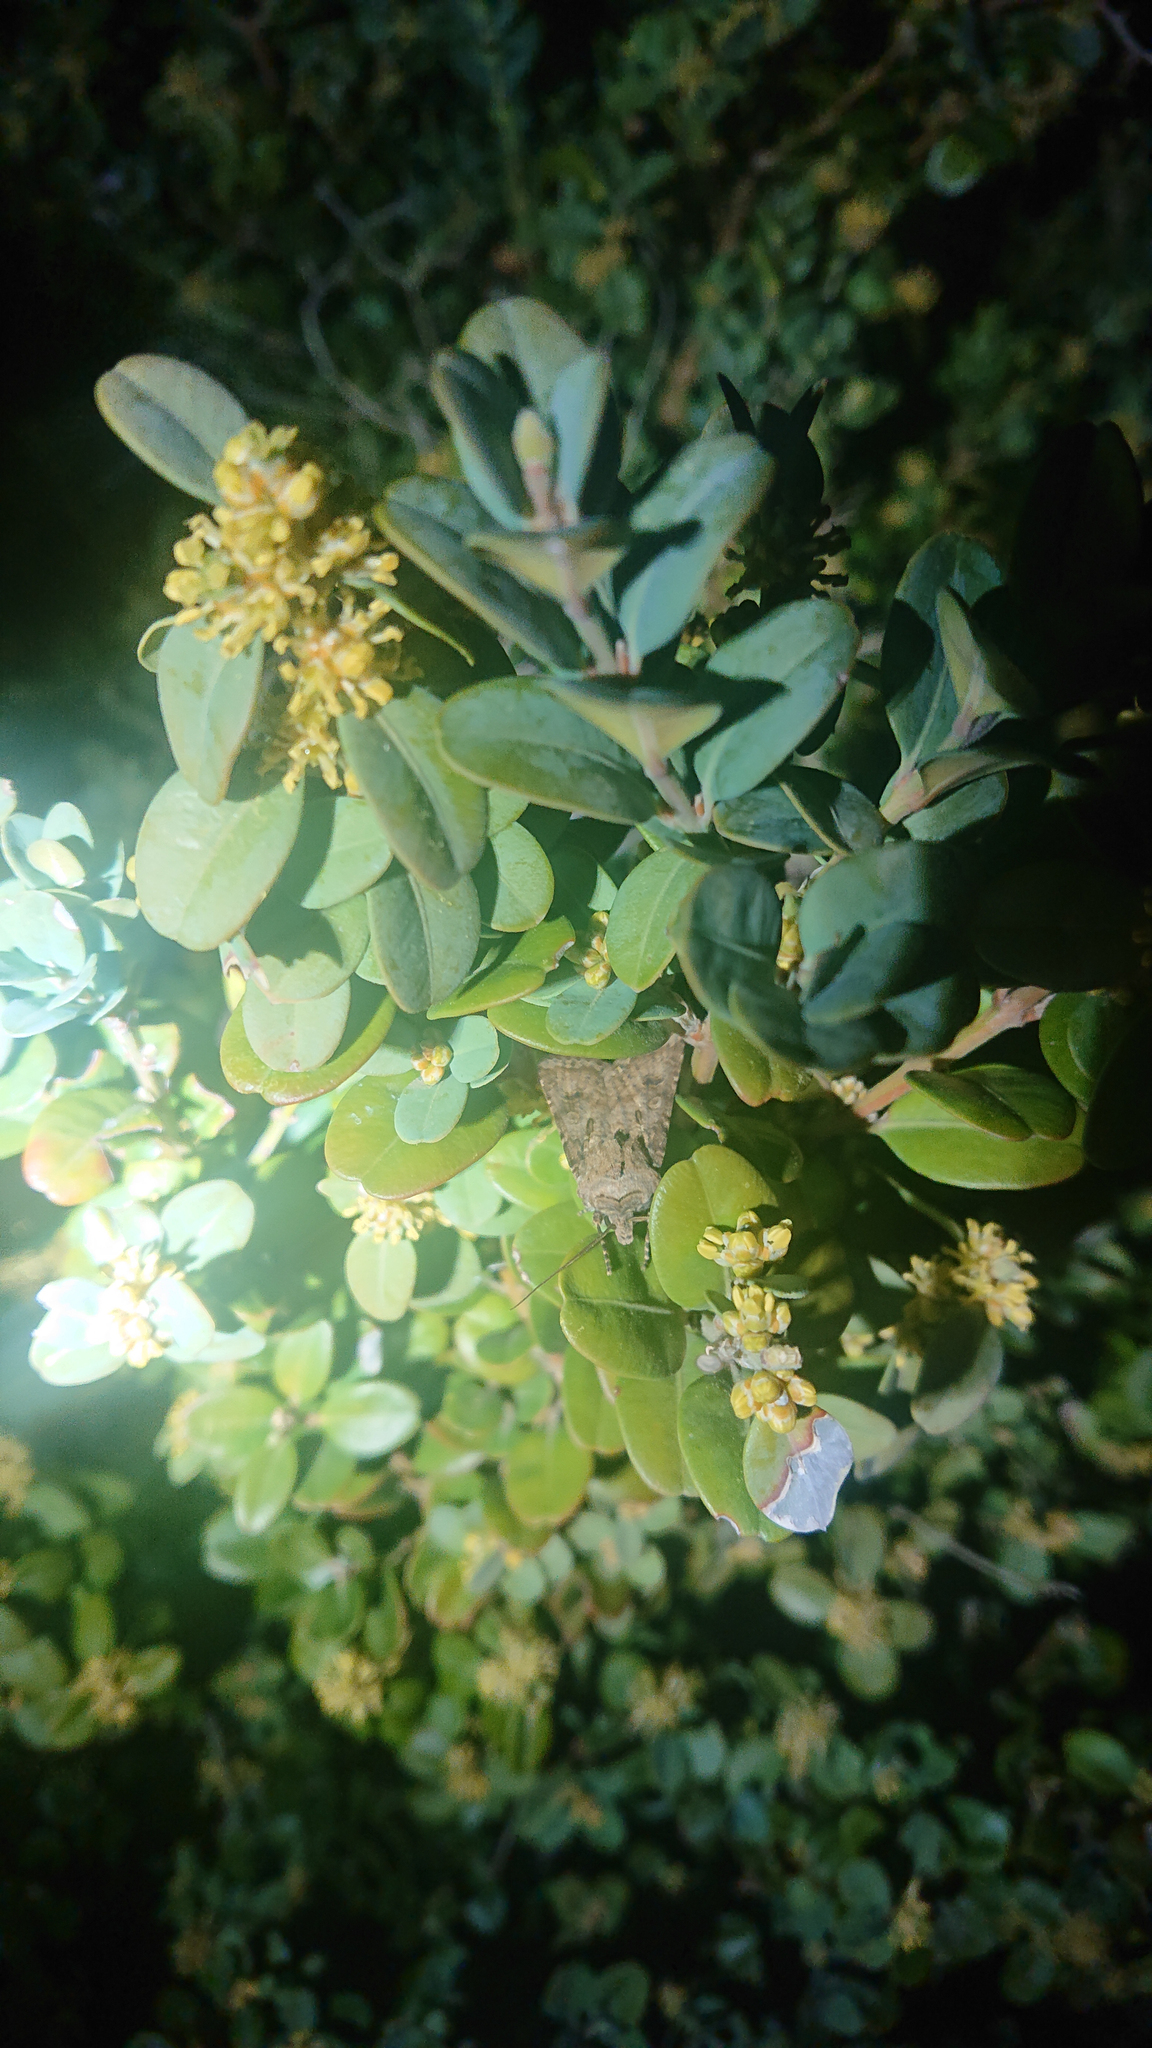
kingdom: Plantae
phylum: Tracheophyta
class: Magnoliopsida
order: Buxales
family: Buxaceae
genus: Buxus
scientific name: Buxus sempervirens
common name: Box
